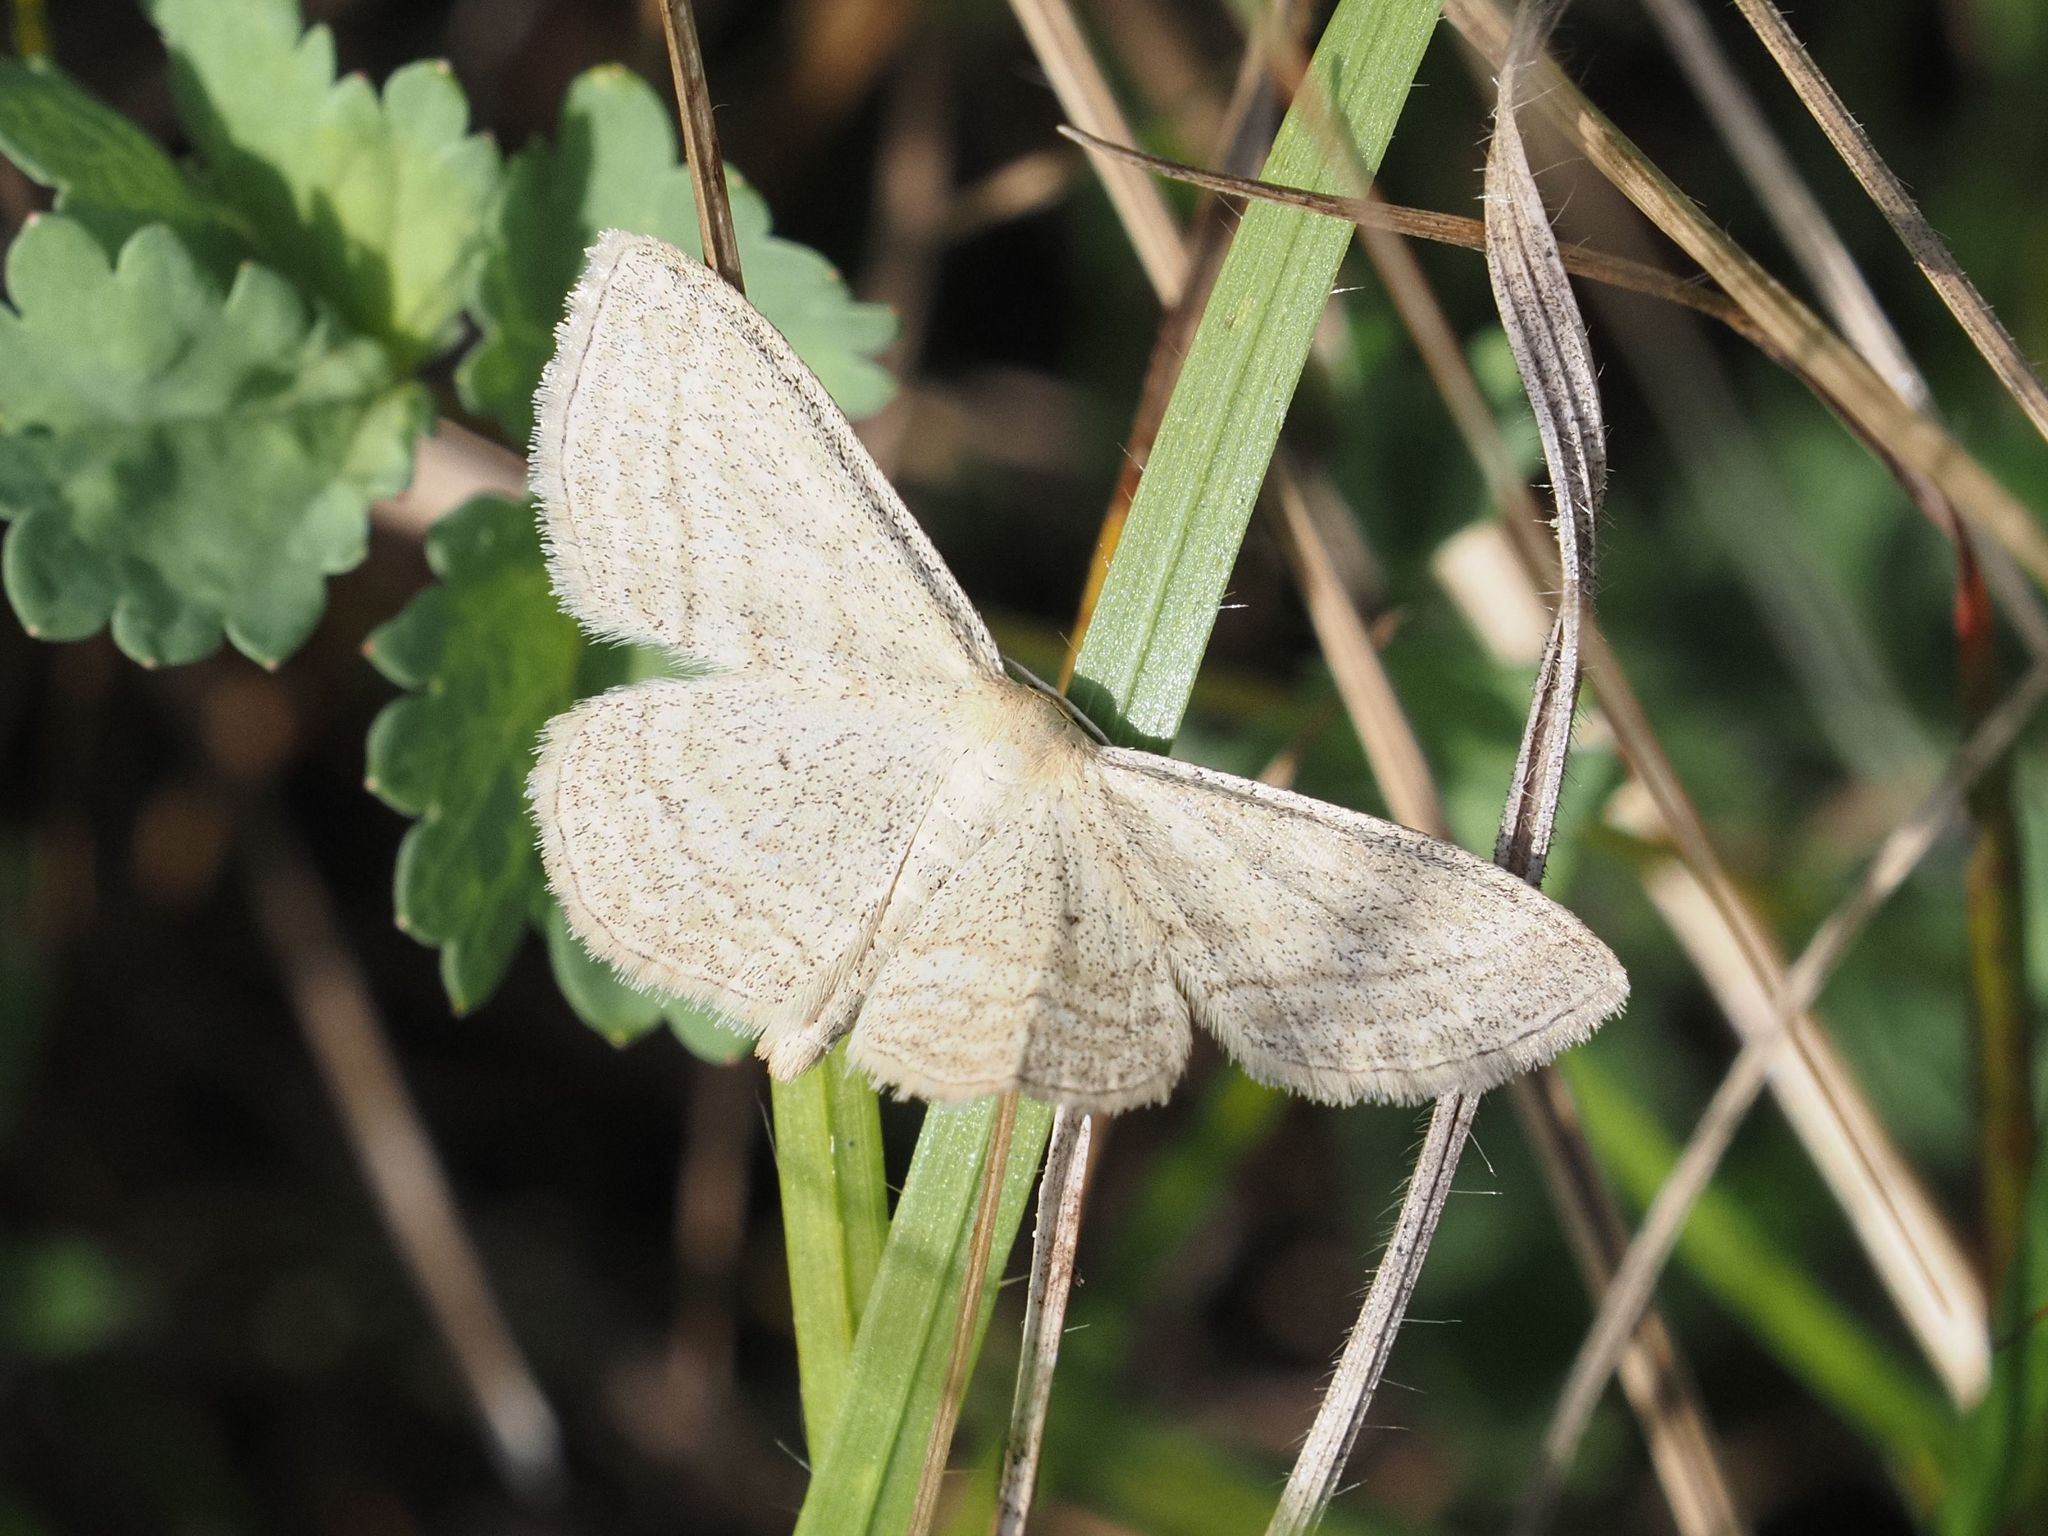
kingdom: Animalia
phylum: Arthropoda
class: Insecta
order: Lepidoptera
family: Geometridae
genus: Scopula
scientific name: Scopula virgulata
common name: Streaked wave
